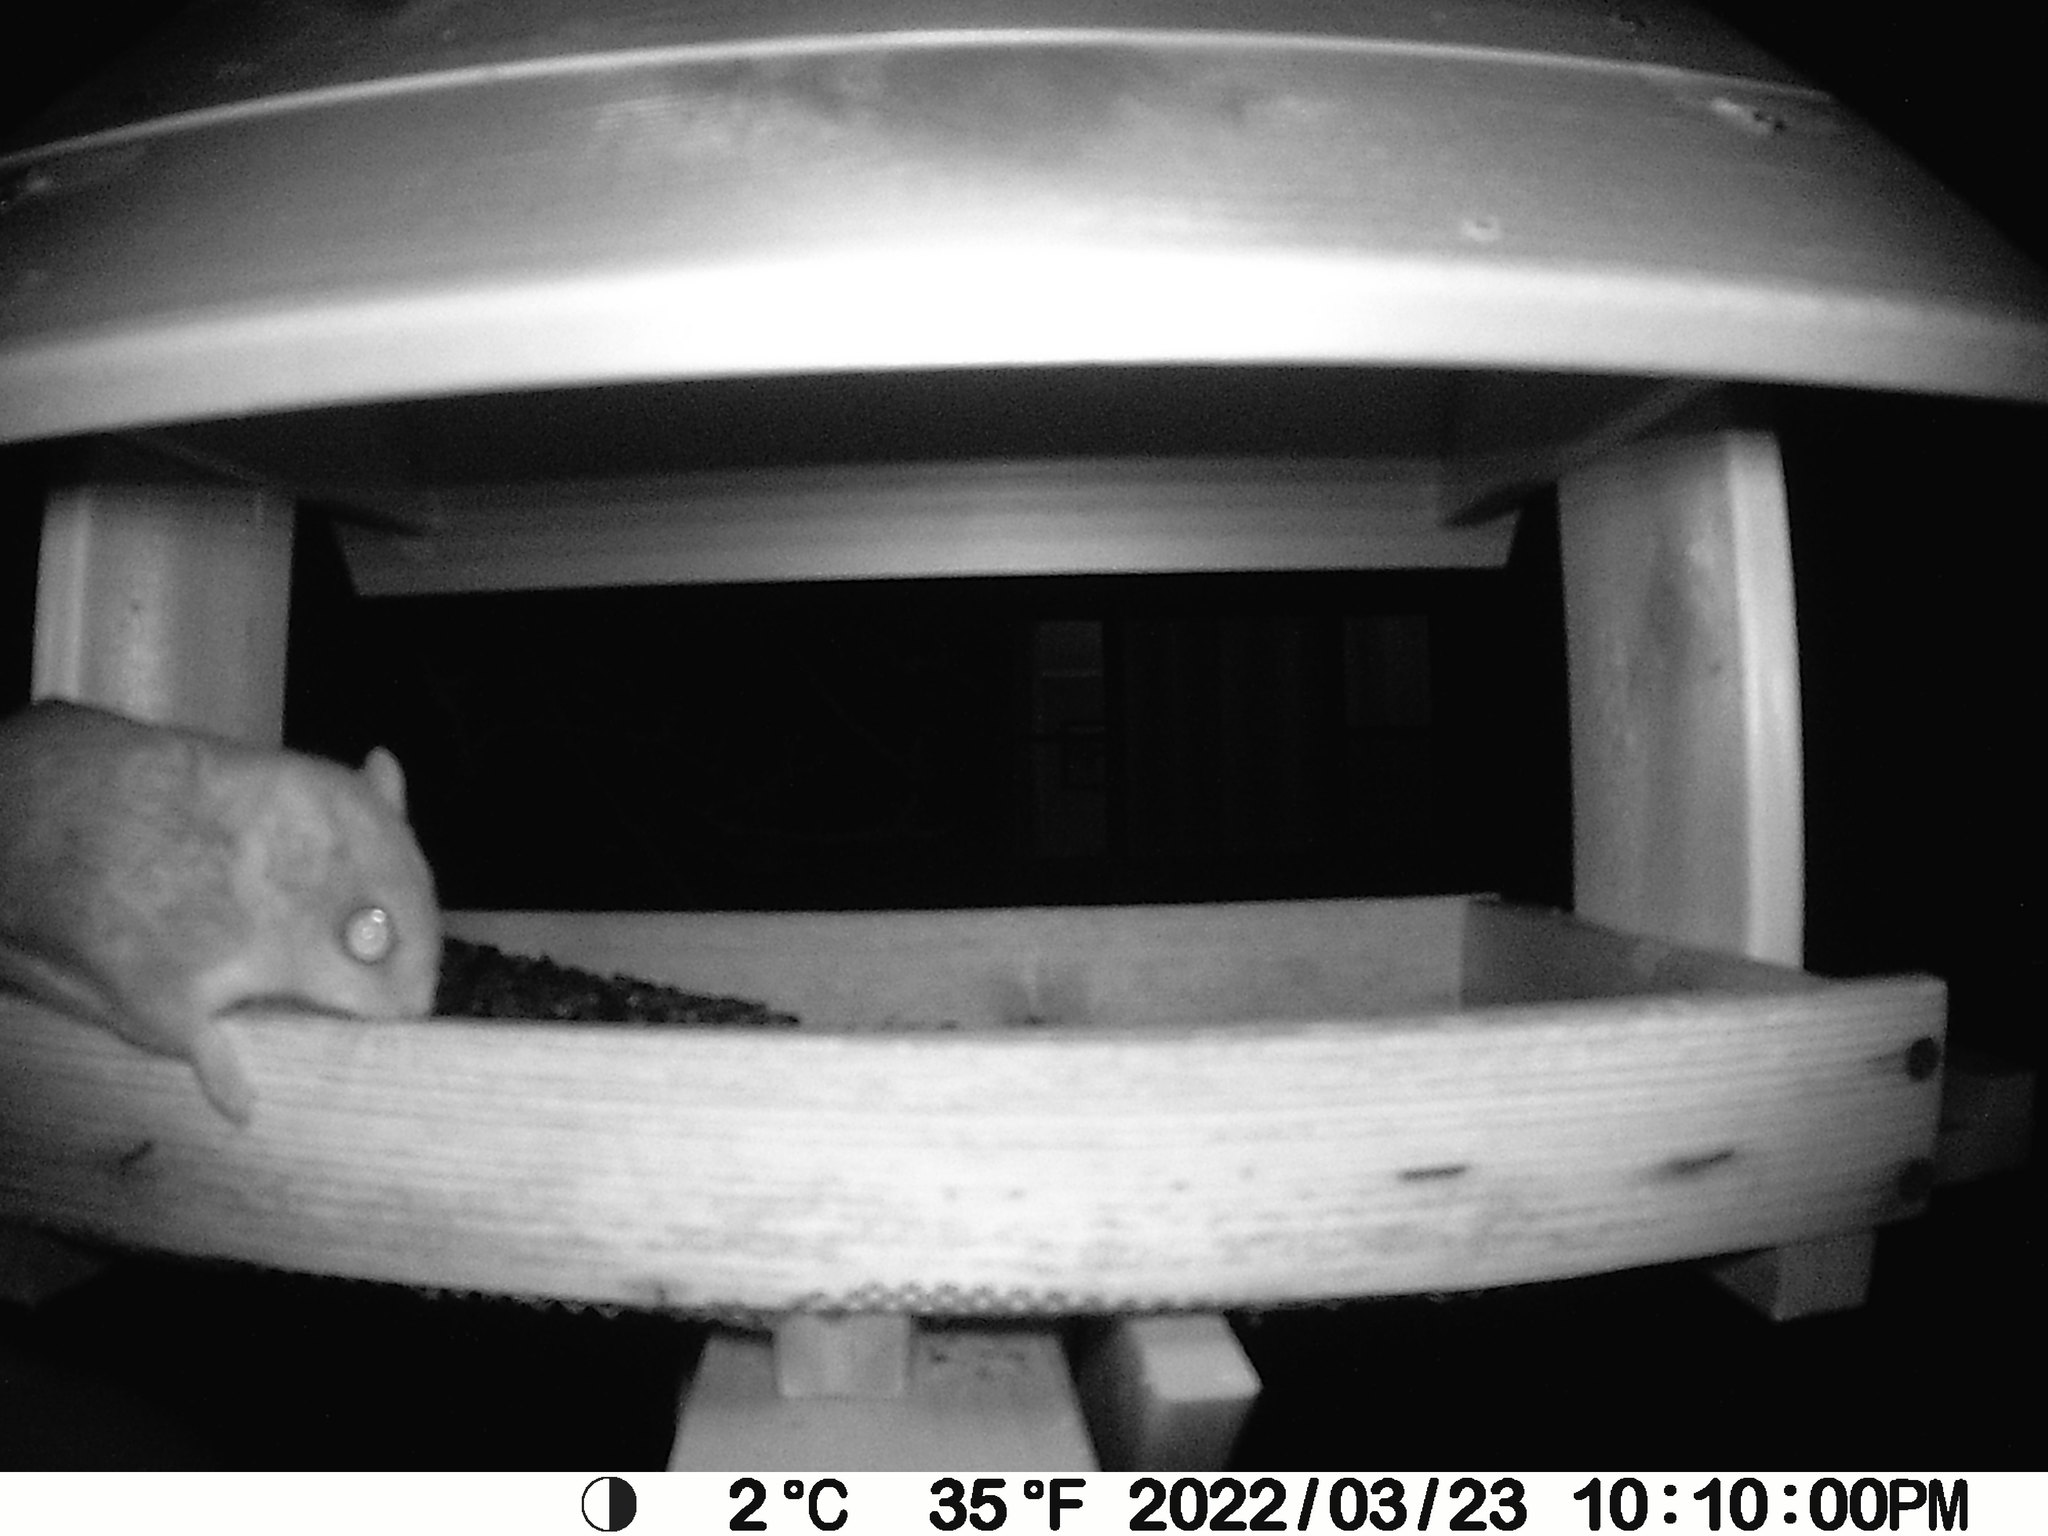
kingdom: Animalia
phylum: Chordata
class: Mammalia
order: Rodentia
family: Sciuridae
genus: Glaucomys
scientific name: Glaucomys sabrinus
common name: Northern flying squirrel
